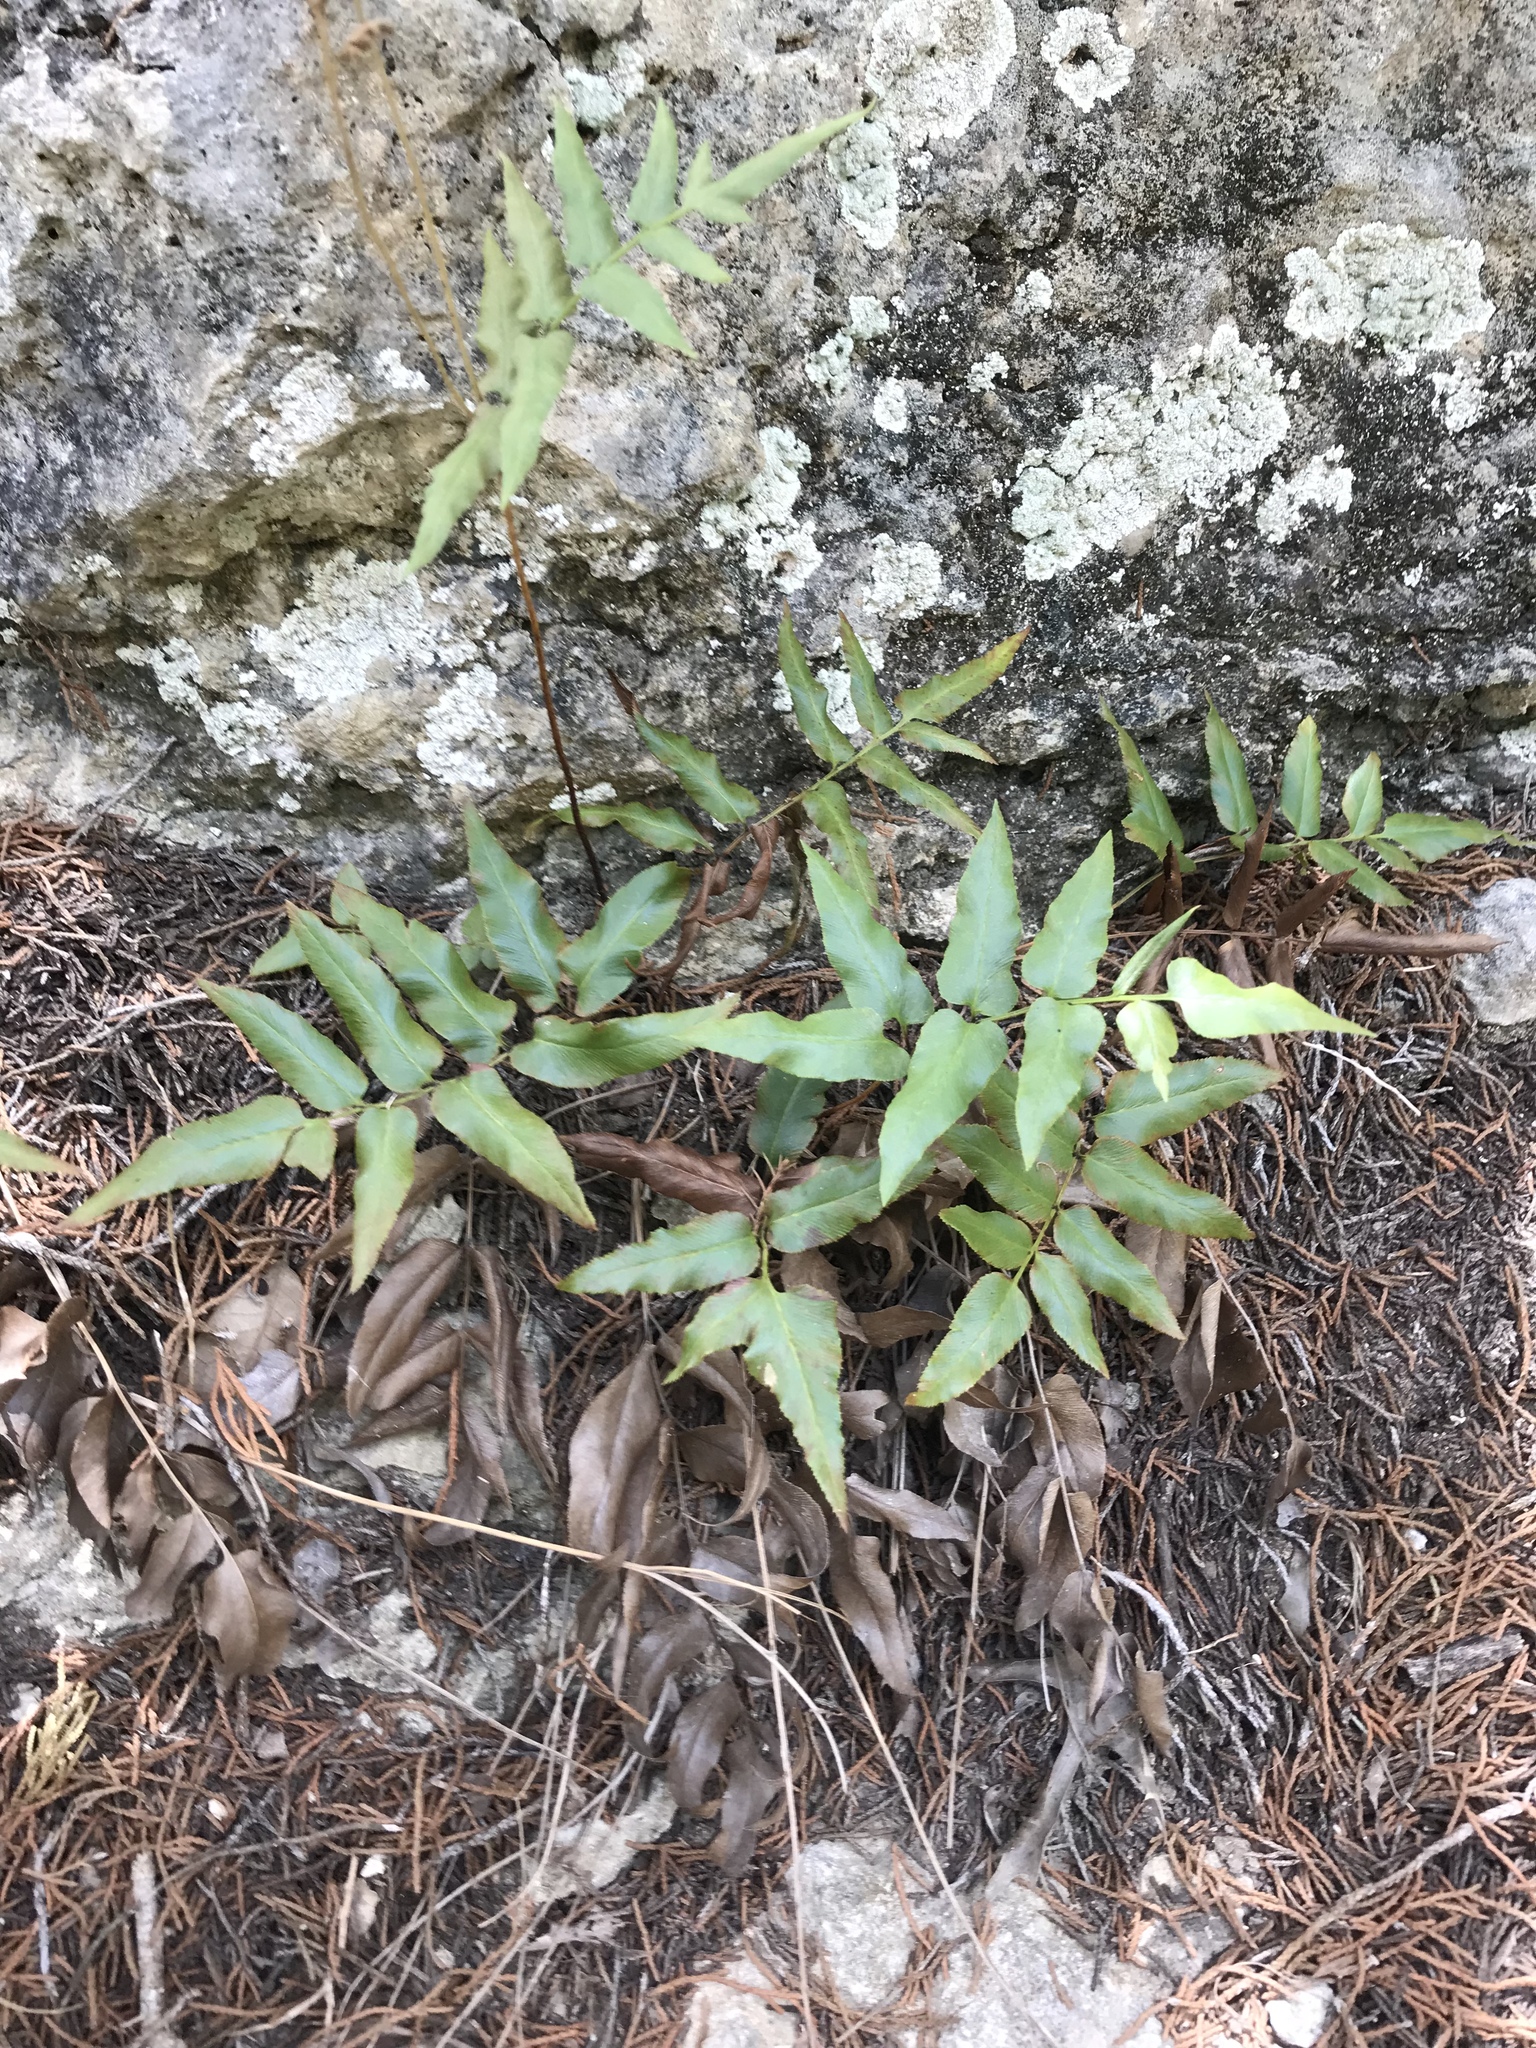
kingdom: Plantae
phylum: Tracheophyta
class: Polypodiopsida
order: Schizaeales
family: Anemiaceae
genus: Anemia
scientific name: Anemia mexicana
